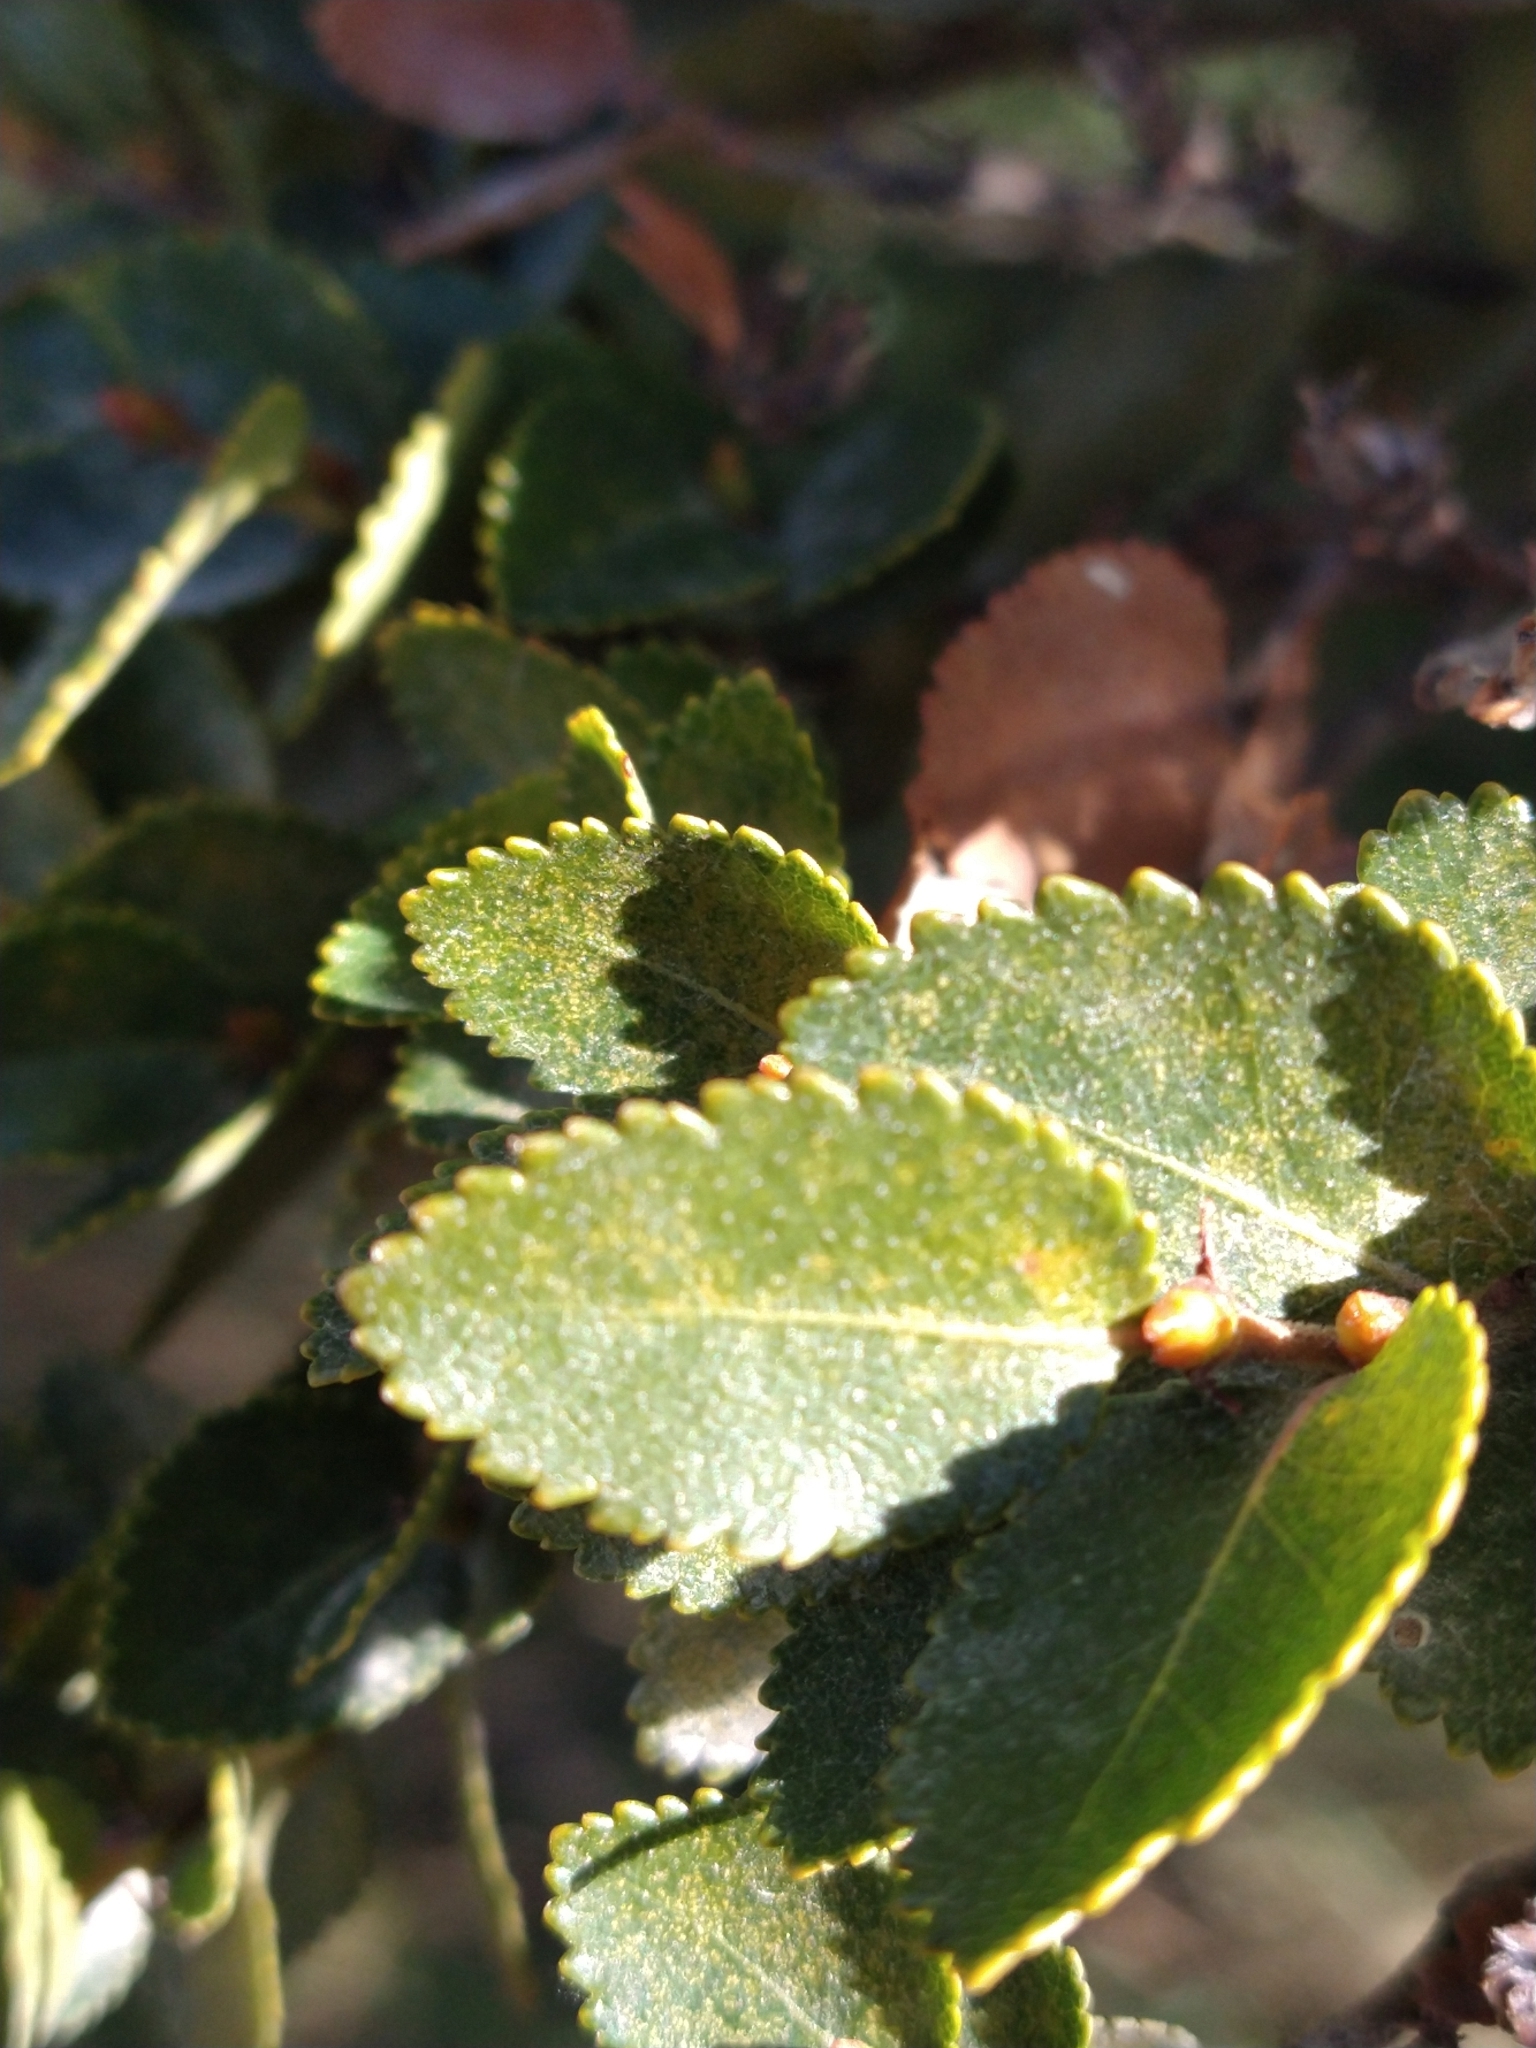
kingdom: Plantae
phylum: Tracheophyta
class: Magnoliopsida
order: Fagales
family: Nothofagaceae
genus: Nothofagus
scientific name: Nothofagus betuloides
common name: Magellan's beech
